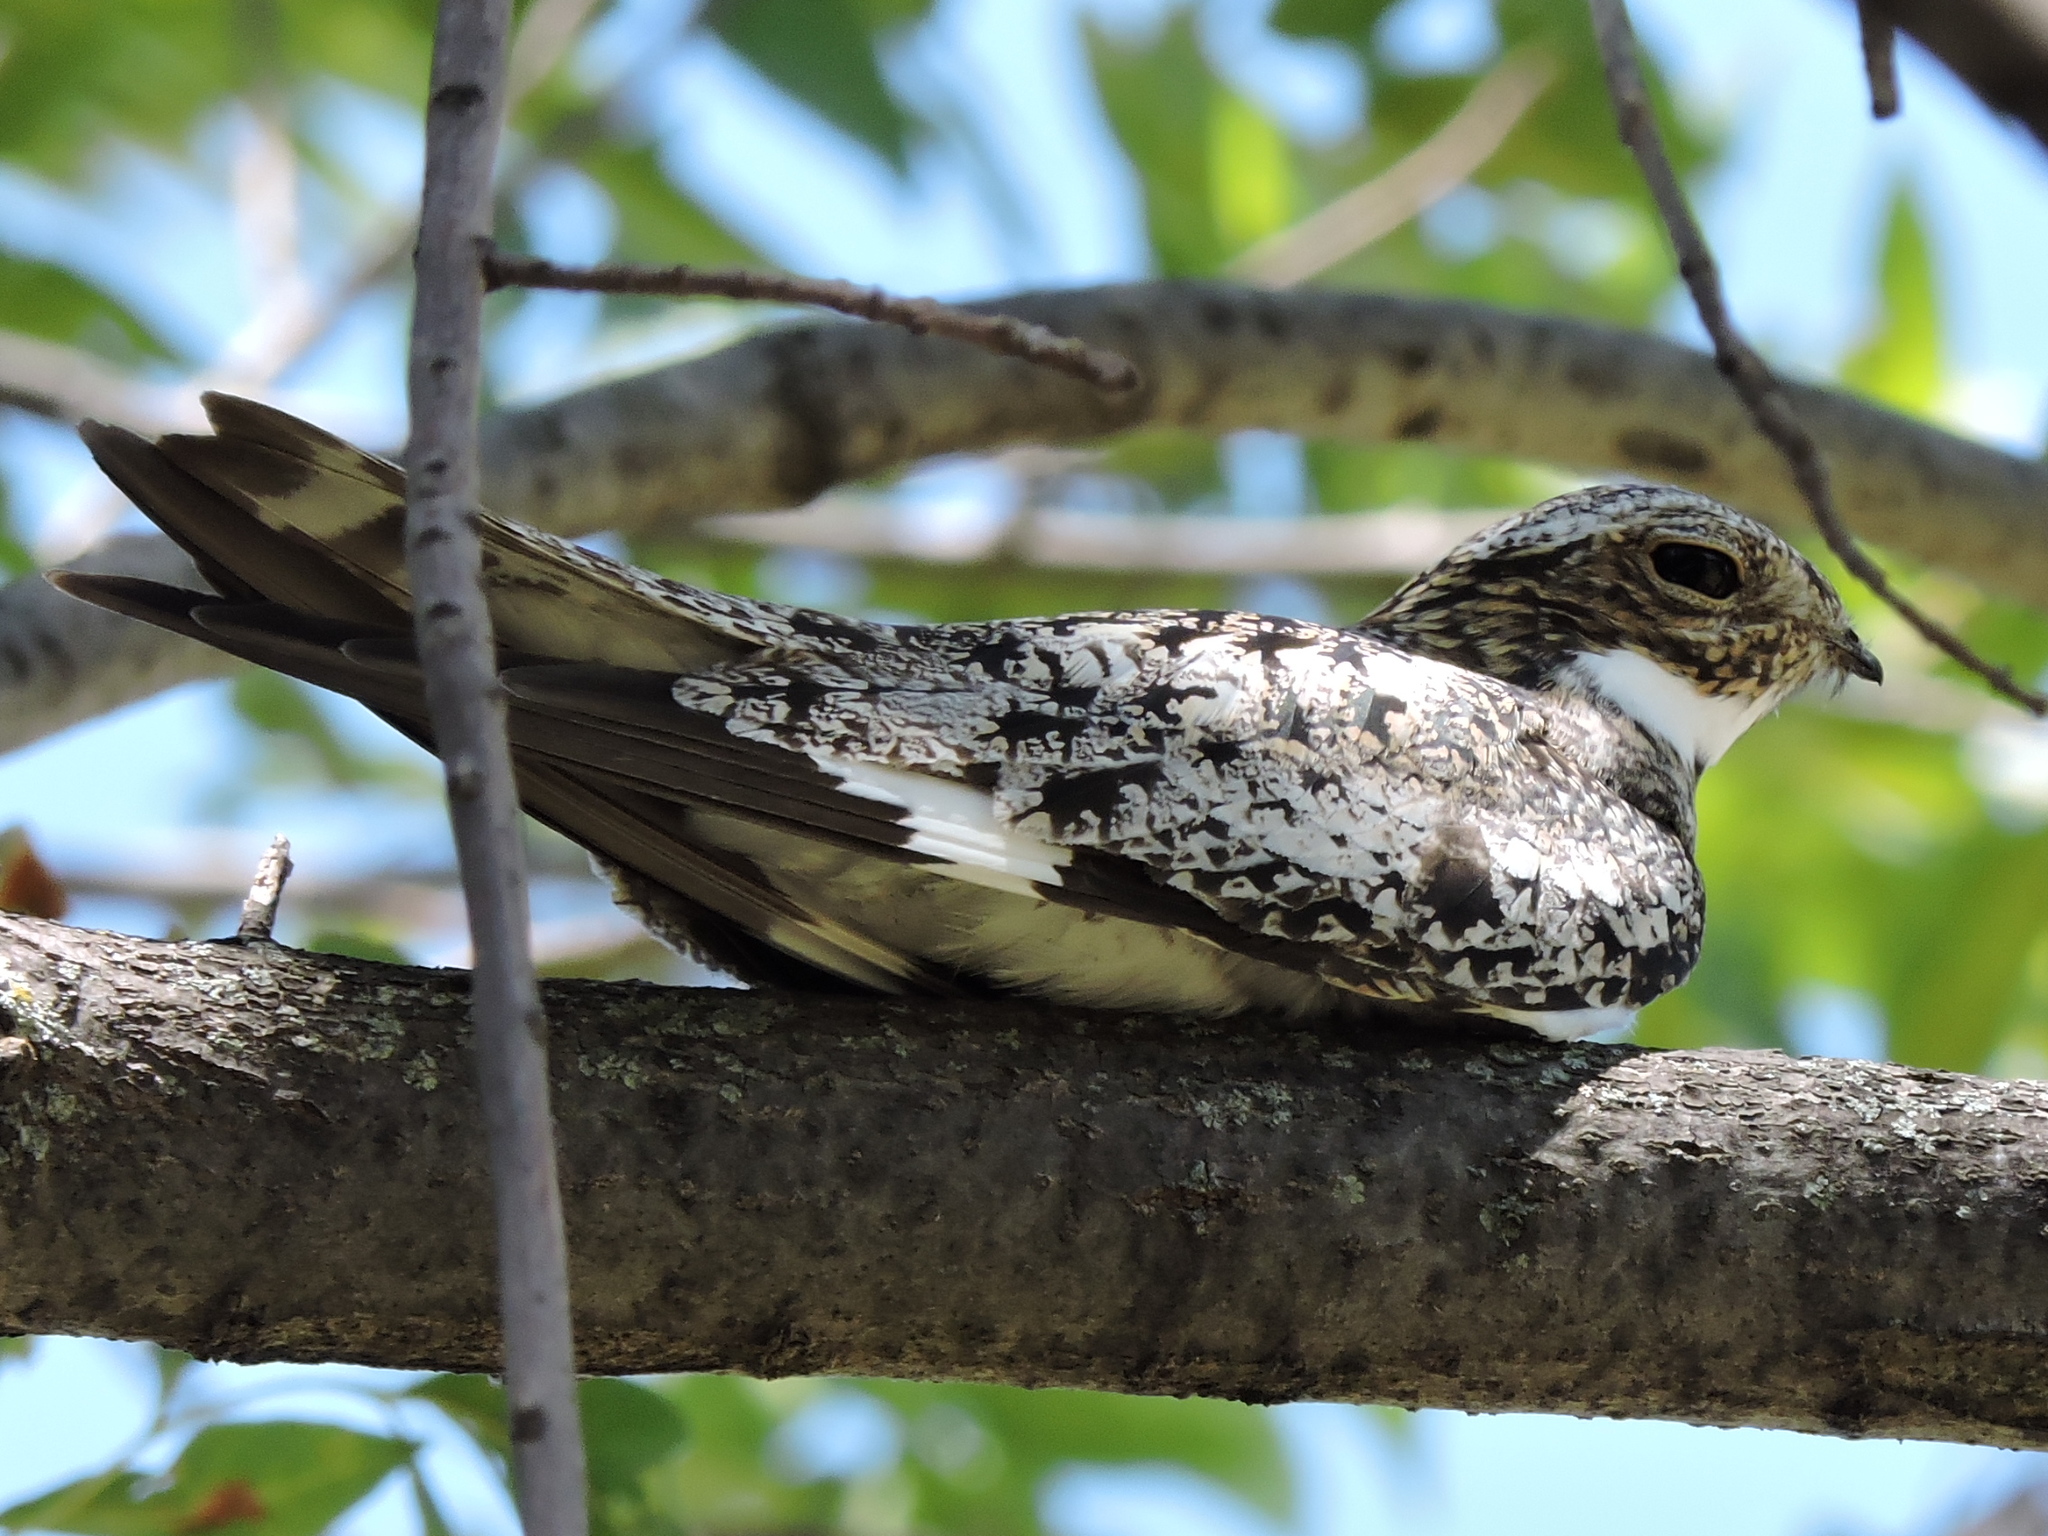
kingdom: Animalia
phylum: Chordata
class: Aves
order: Caprimulgiformes
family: Caprimulgidae
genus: Chordeiles
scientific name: Chordeiles minor
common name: Common nighthawk
